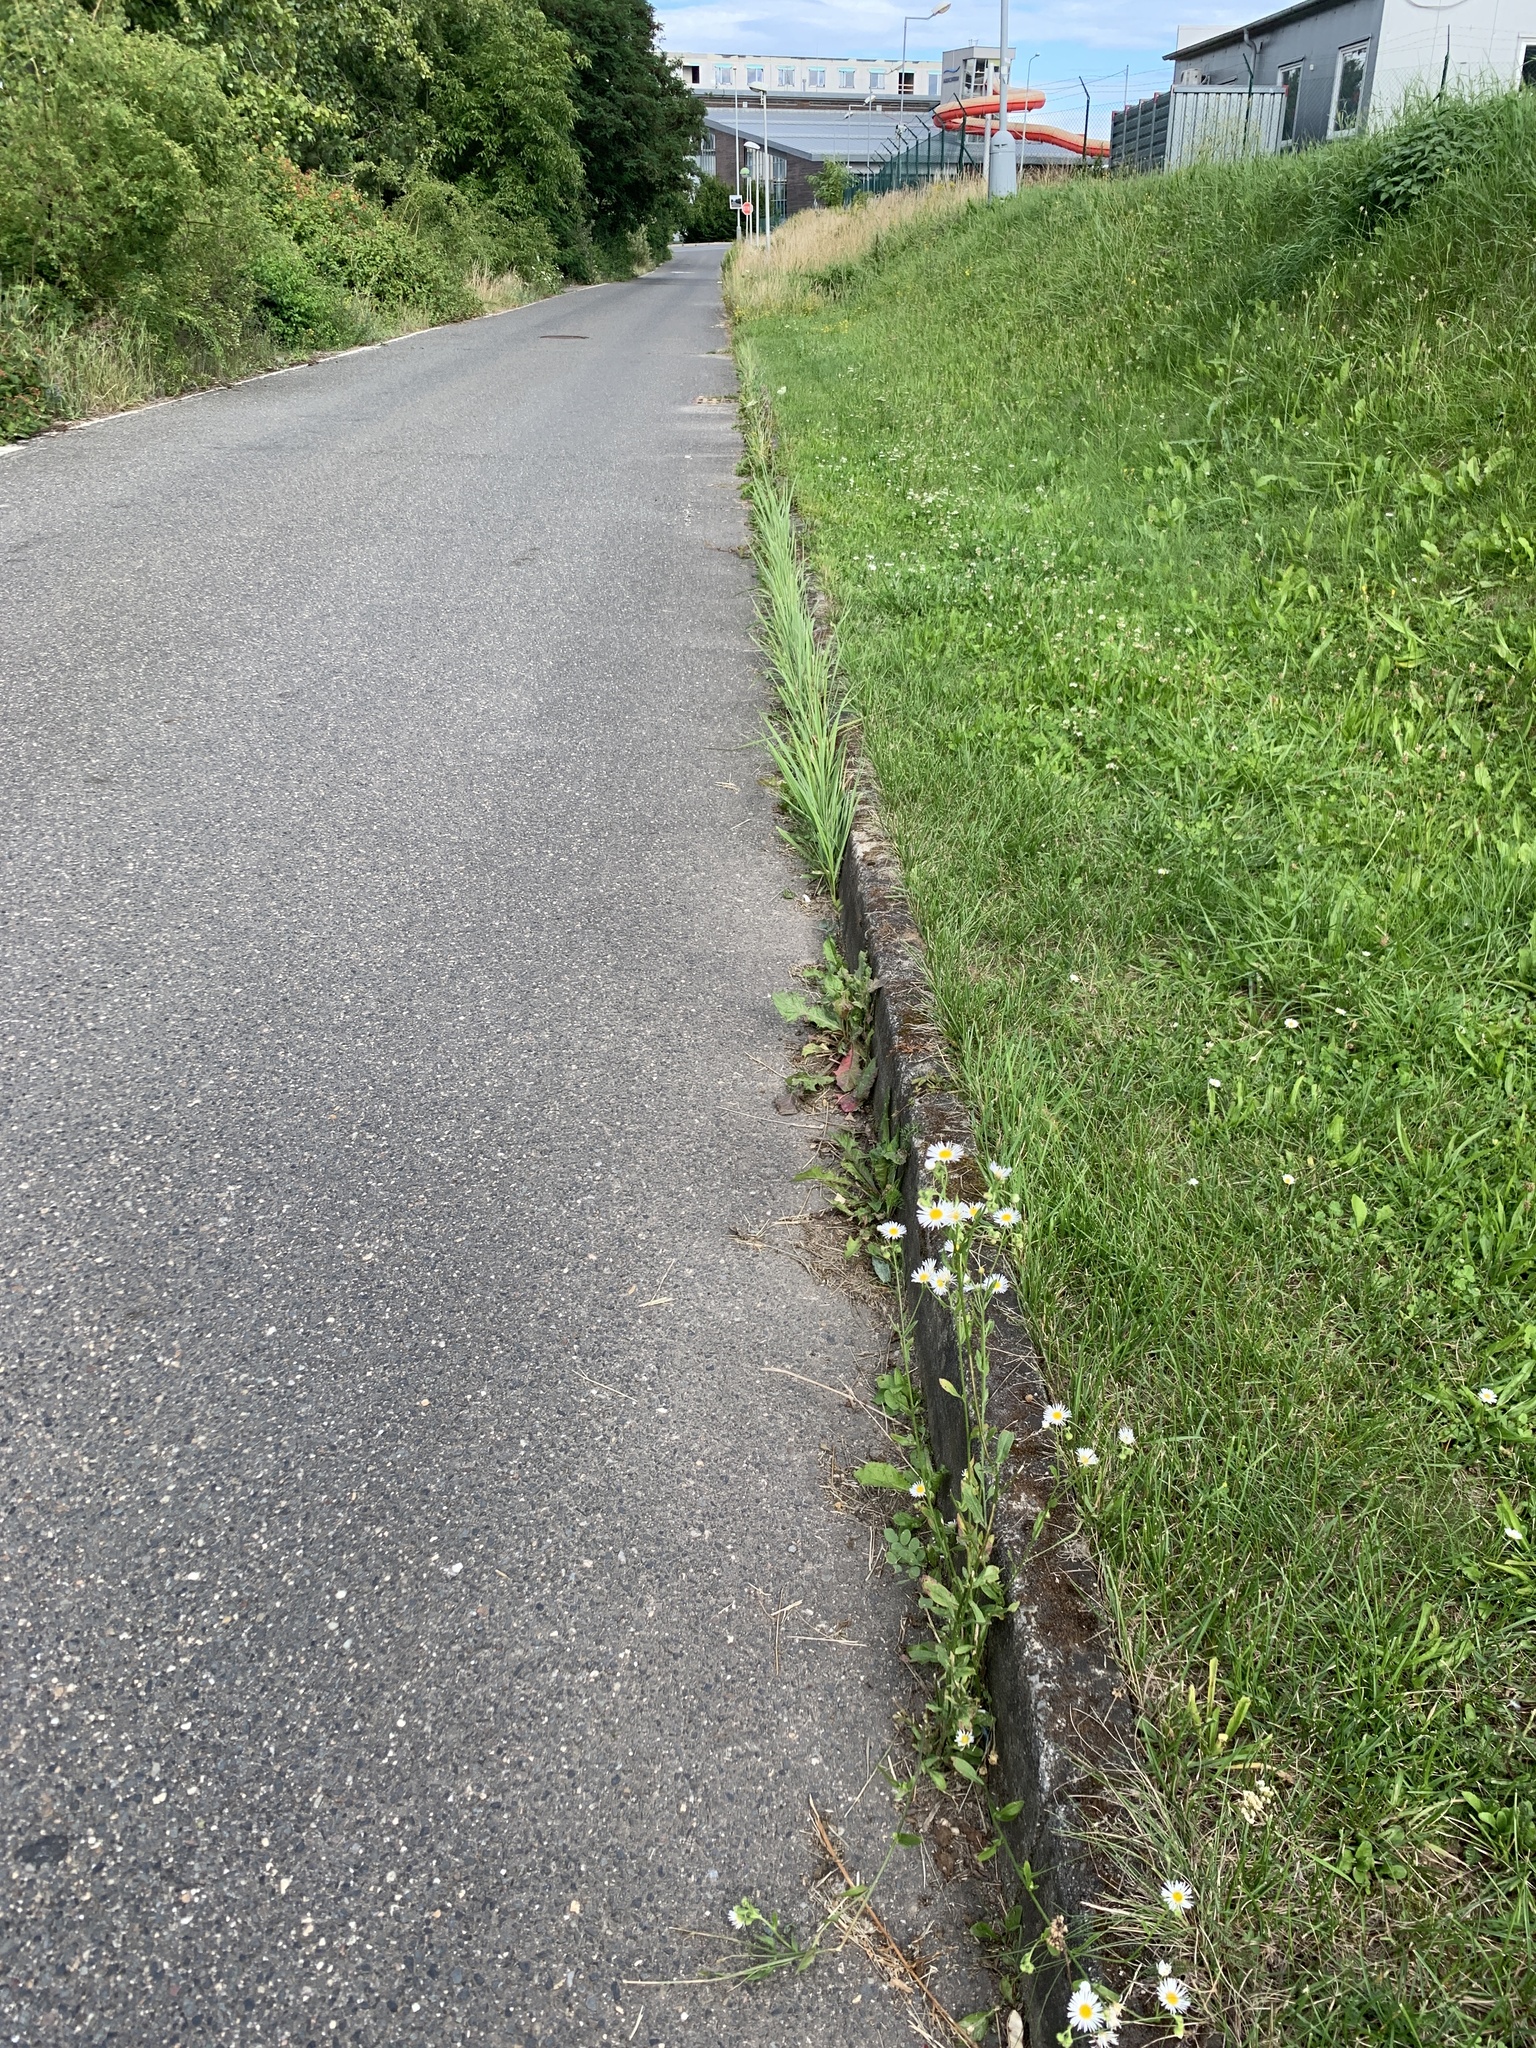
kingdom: Plantae
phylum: Tracheophyta
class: Magnoliopsida
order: Asterales
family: Asteraceae
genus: Erigeron
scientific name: Erigeron annuus
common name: Tall fleabane
